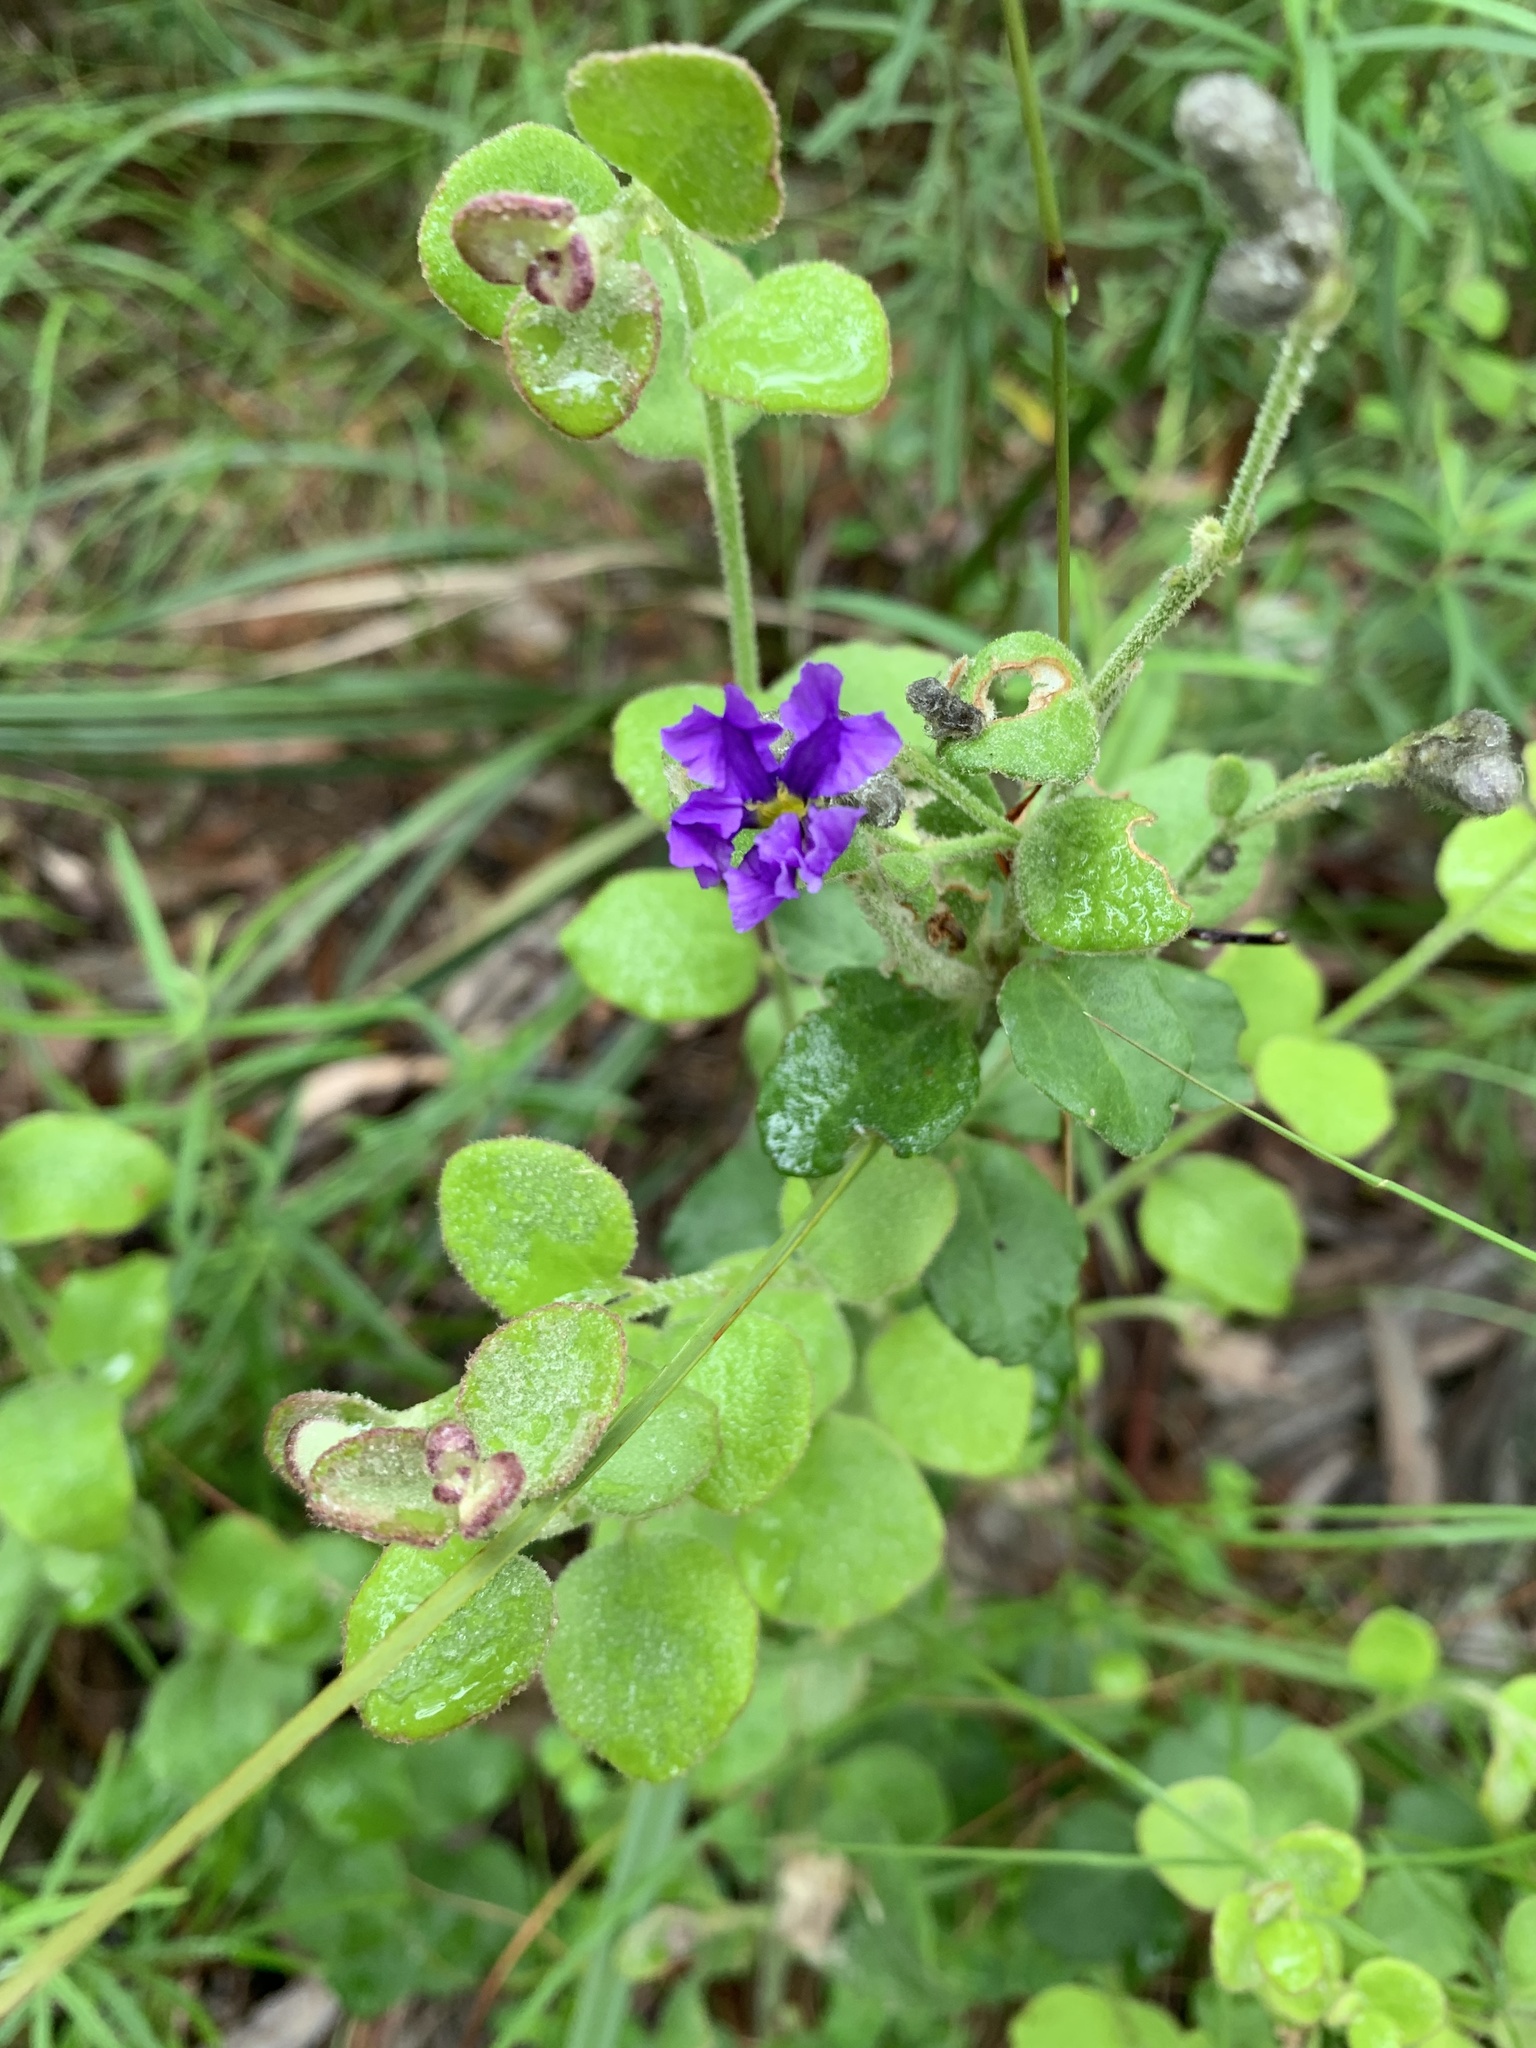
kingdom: Plantae
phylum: Tracheophyta
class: Magnoliopsida
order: Asterales
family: Goodeniaceae
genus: Dampiera
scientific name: Dampiera purpurea
